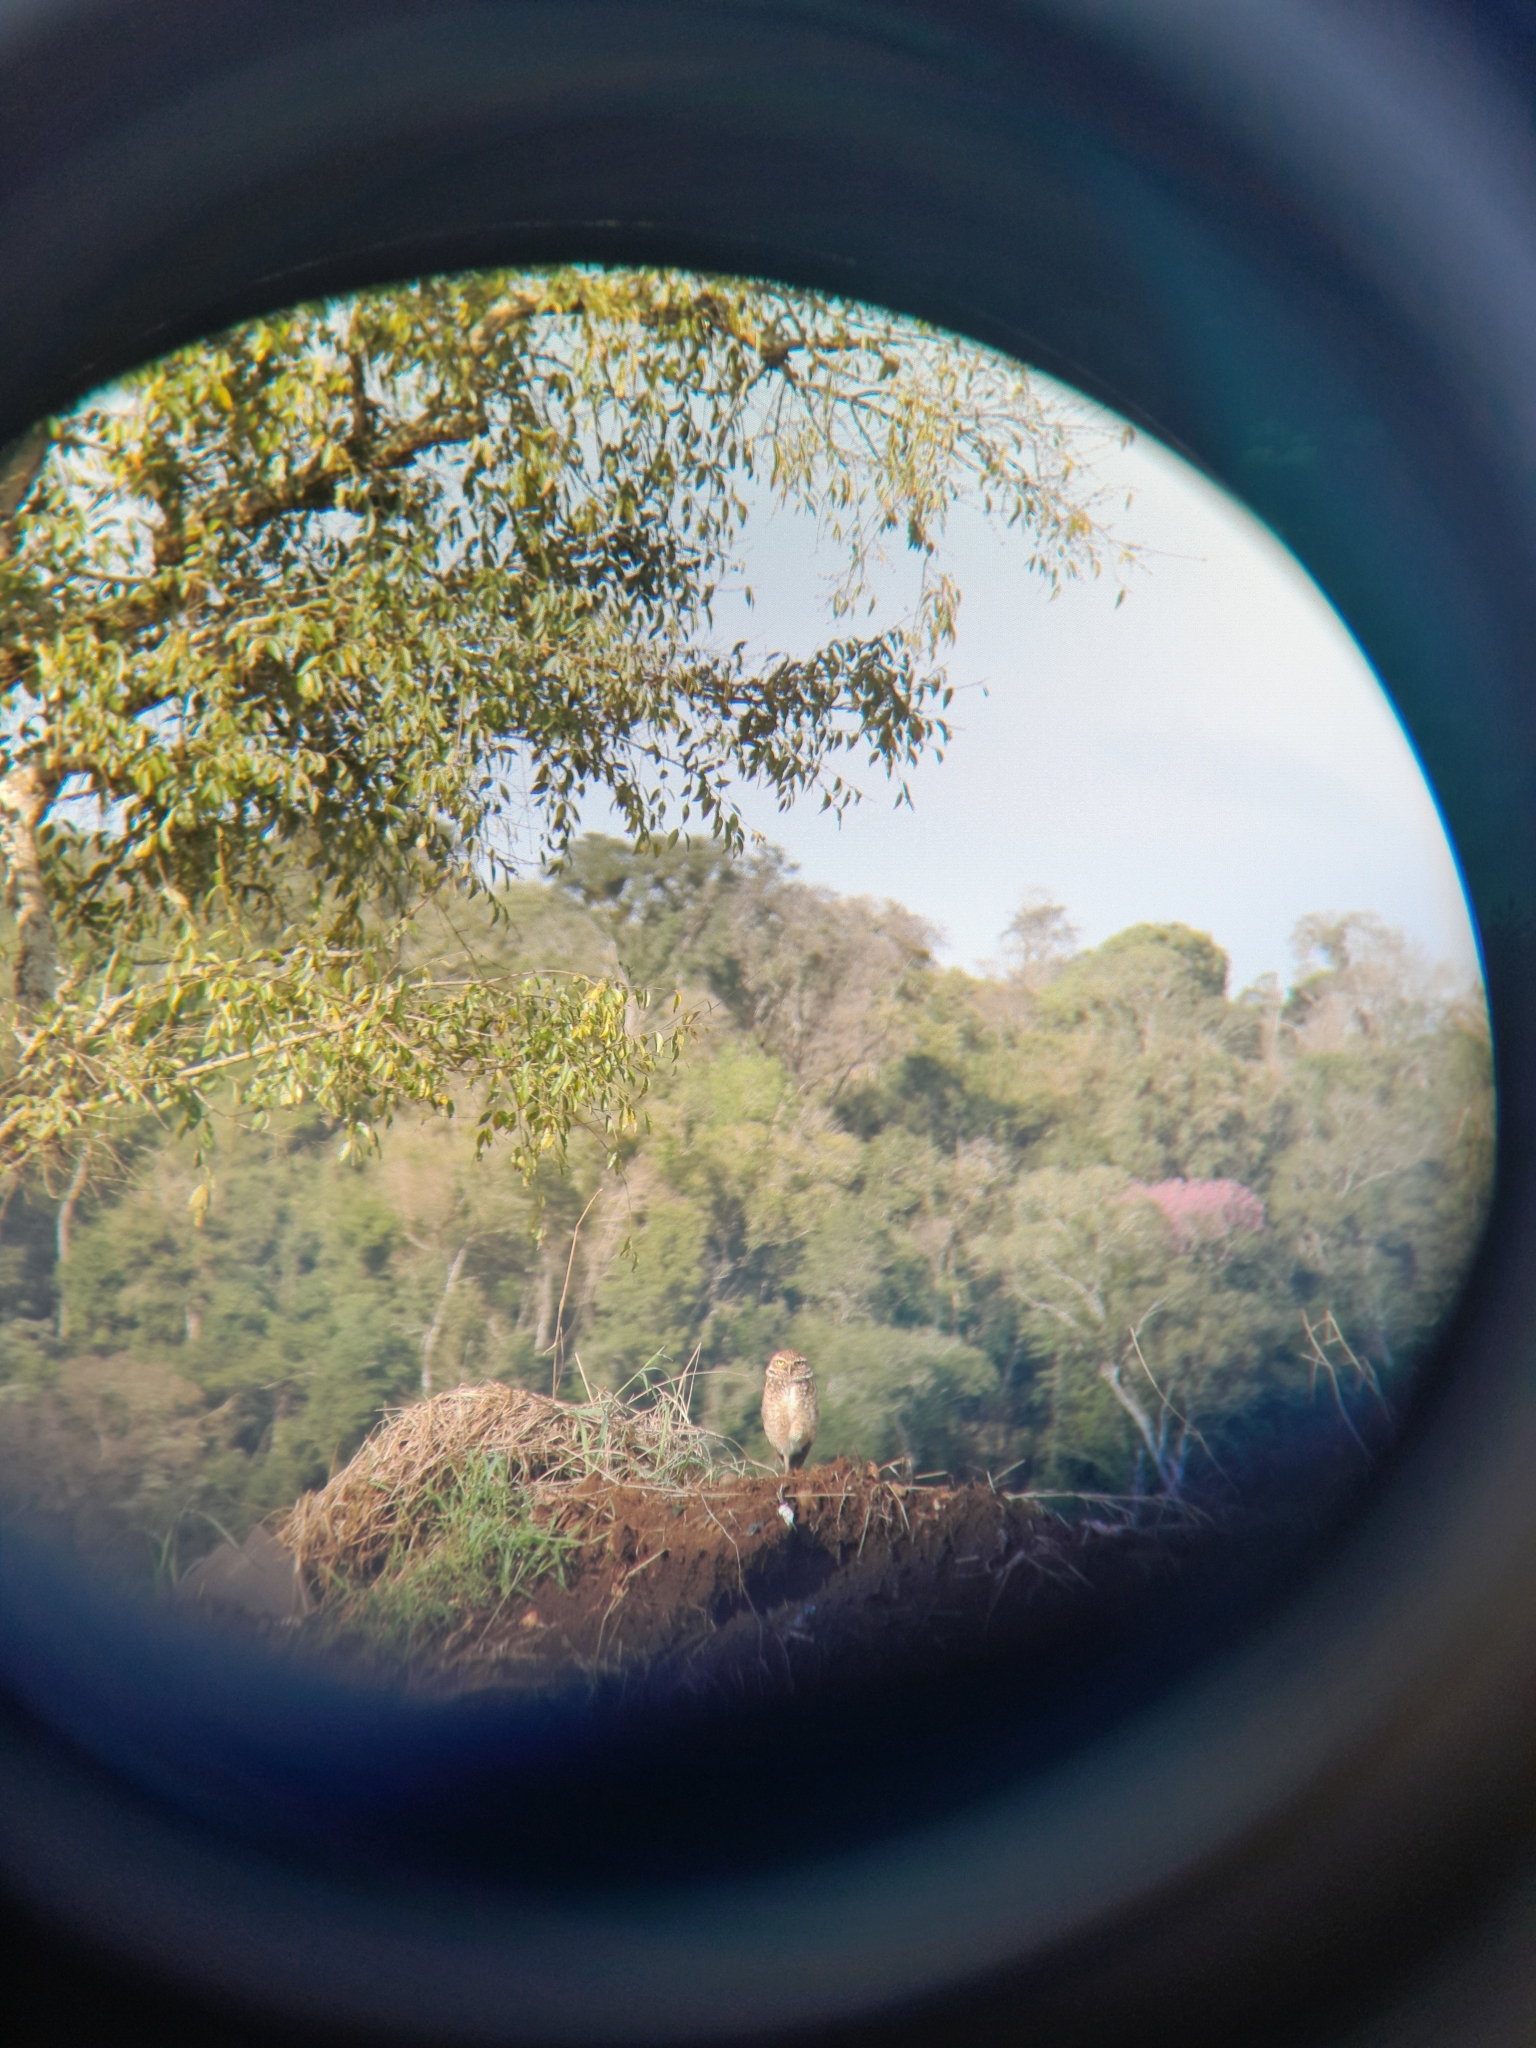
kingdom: Animalia
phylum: Chordata
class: Aves
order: Strigiformes
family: Strigidae
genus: Athene
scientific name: Athene cunicularia
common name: Burrowing owl
